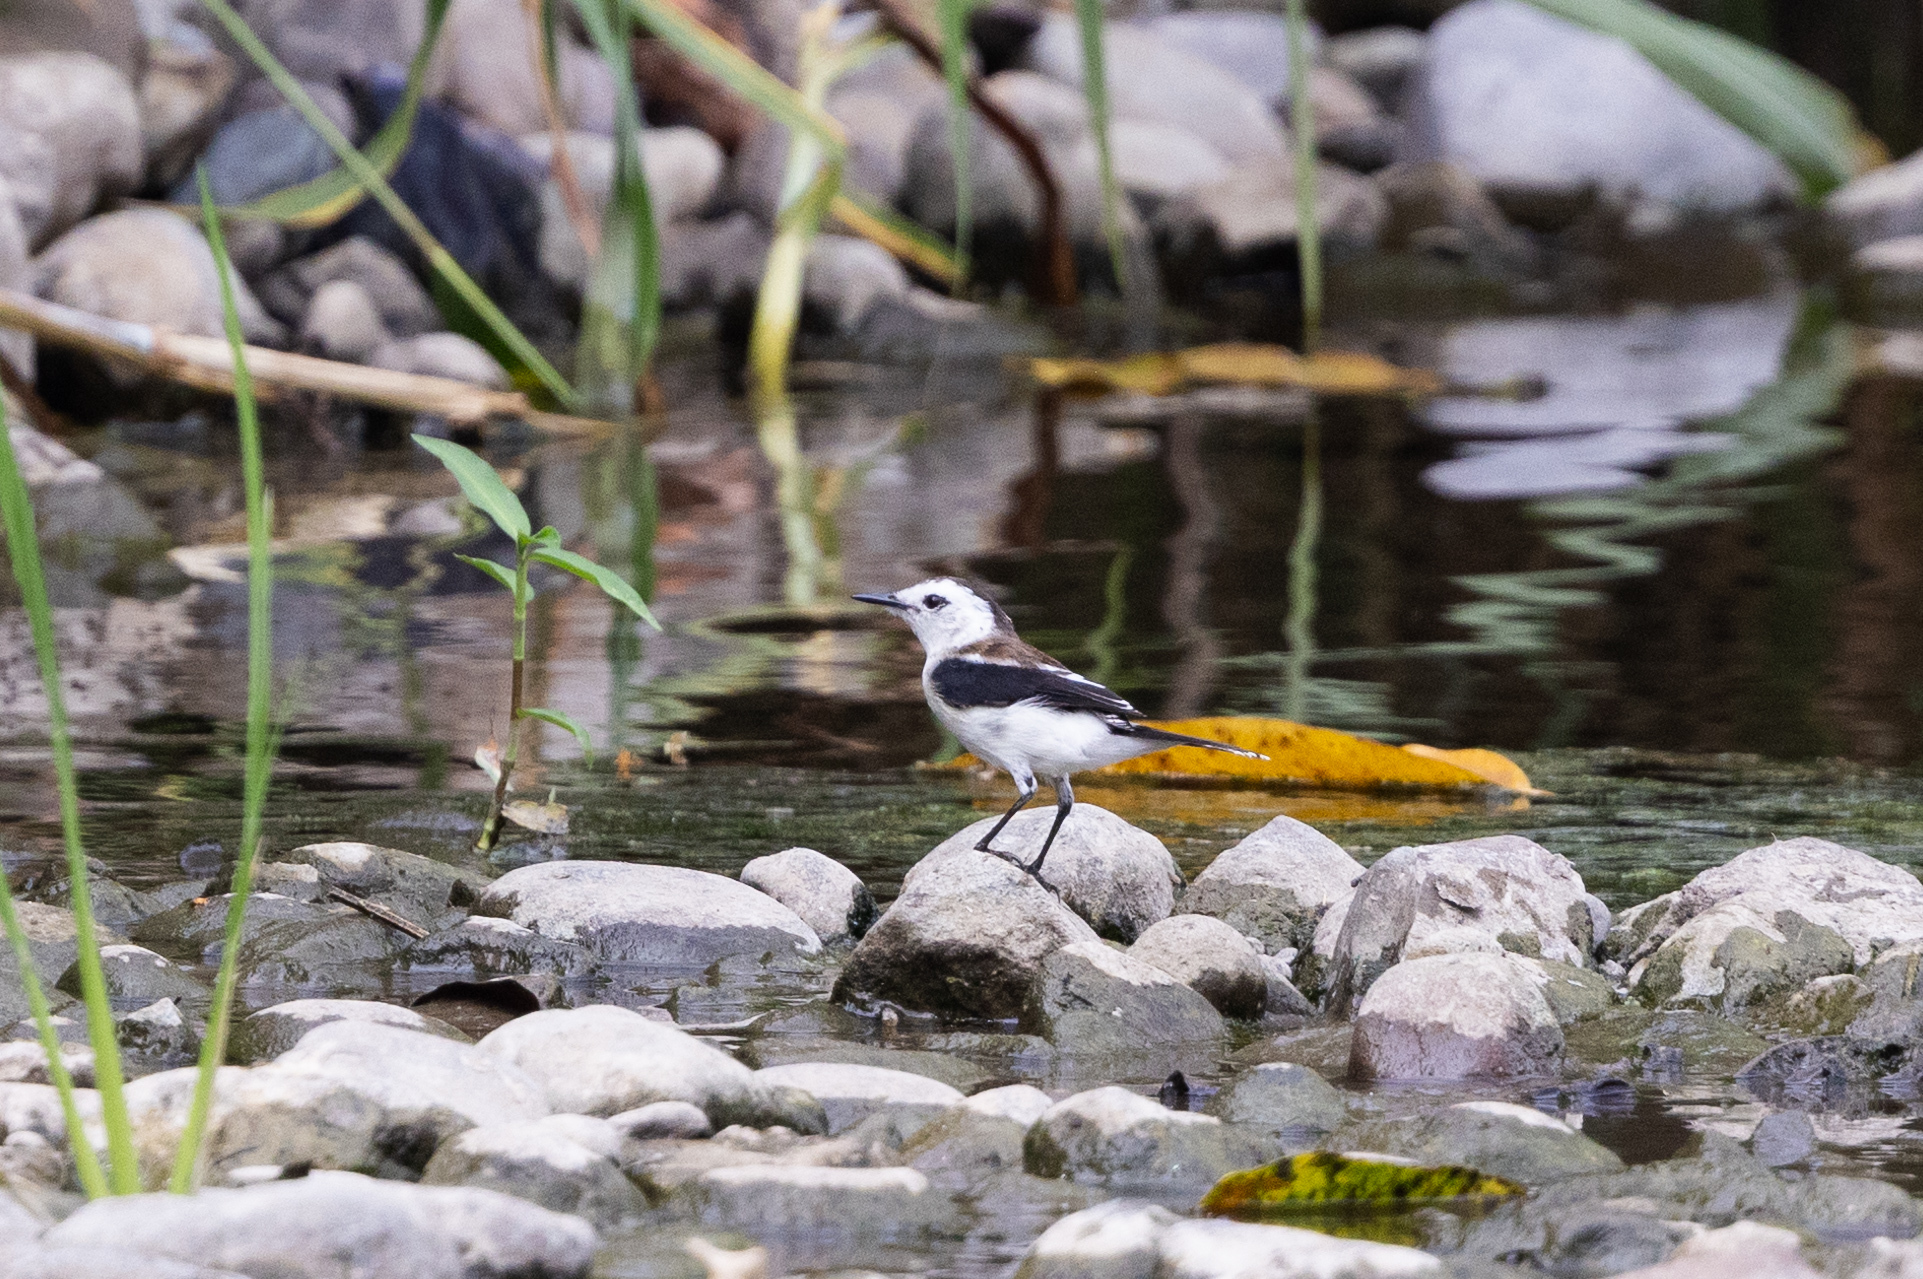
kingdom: Animalia
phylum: Chordata
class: Aves
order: Passeriformes
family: Tyrannidae
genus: Fluvicola
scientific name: Fluvicola pica
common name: Pied water-tyrant
